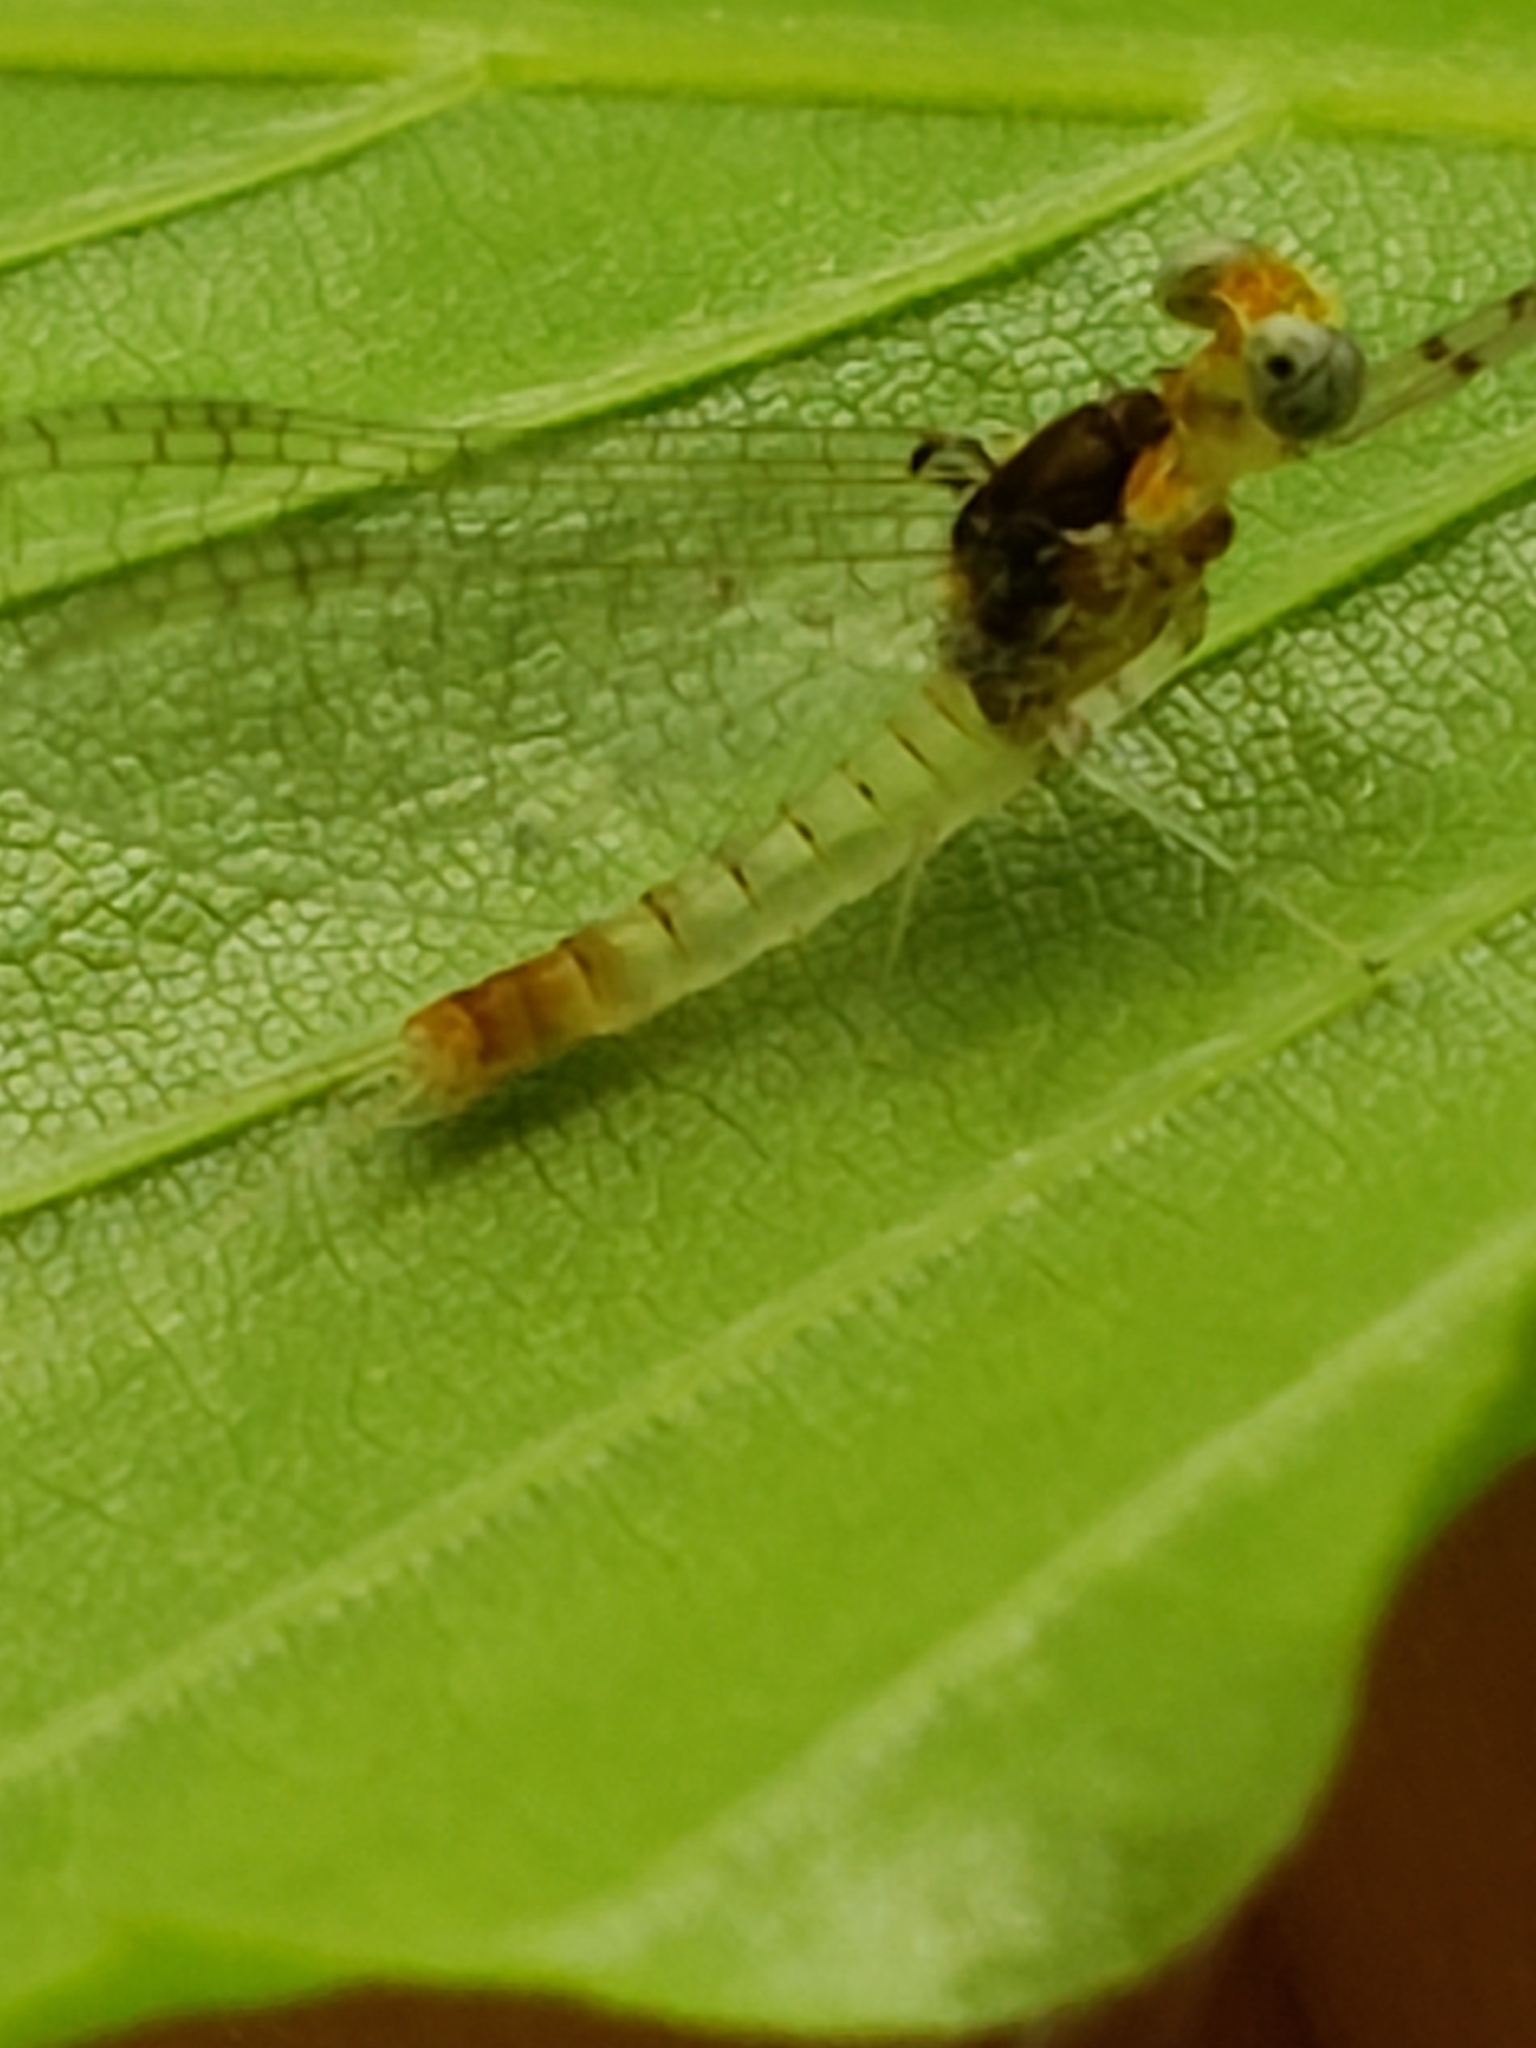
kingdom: Animalia
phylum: Arthropoda
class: Insecta
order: Ephemeroptera
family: Heptageniidae
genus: Stenacron
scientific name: Stenacron interpunctatum
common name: Orange cahill
